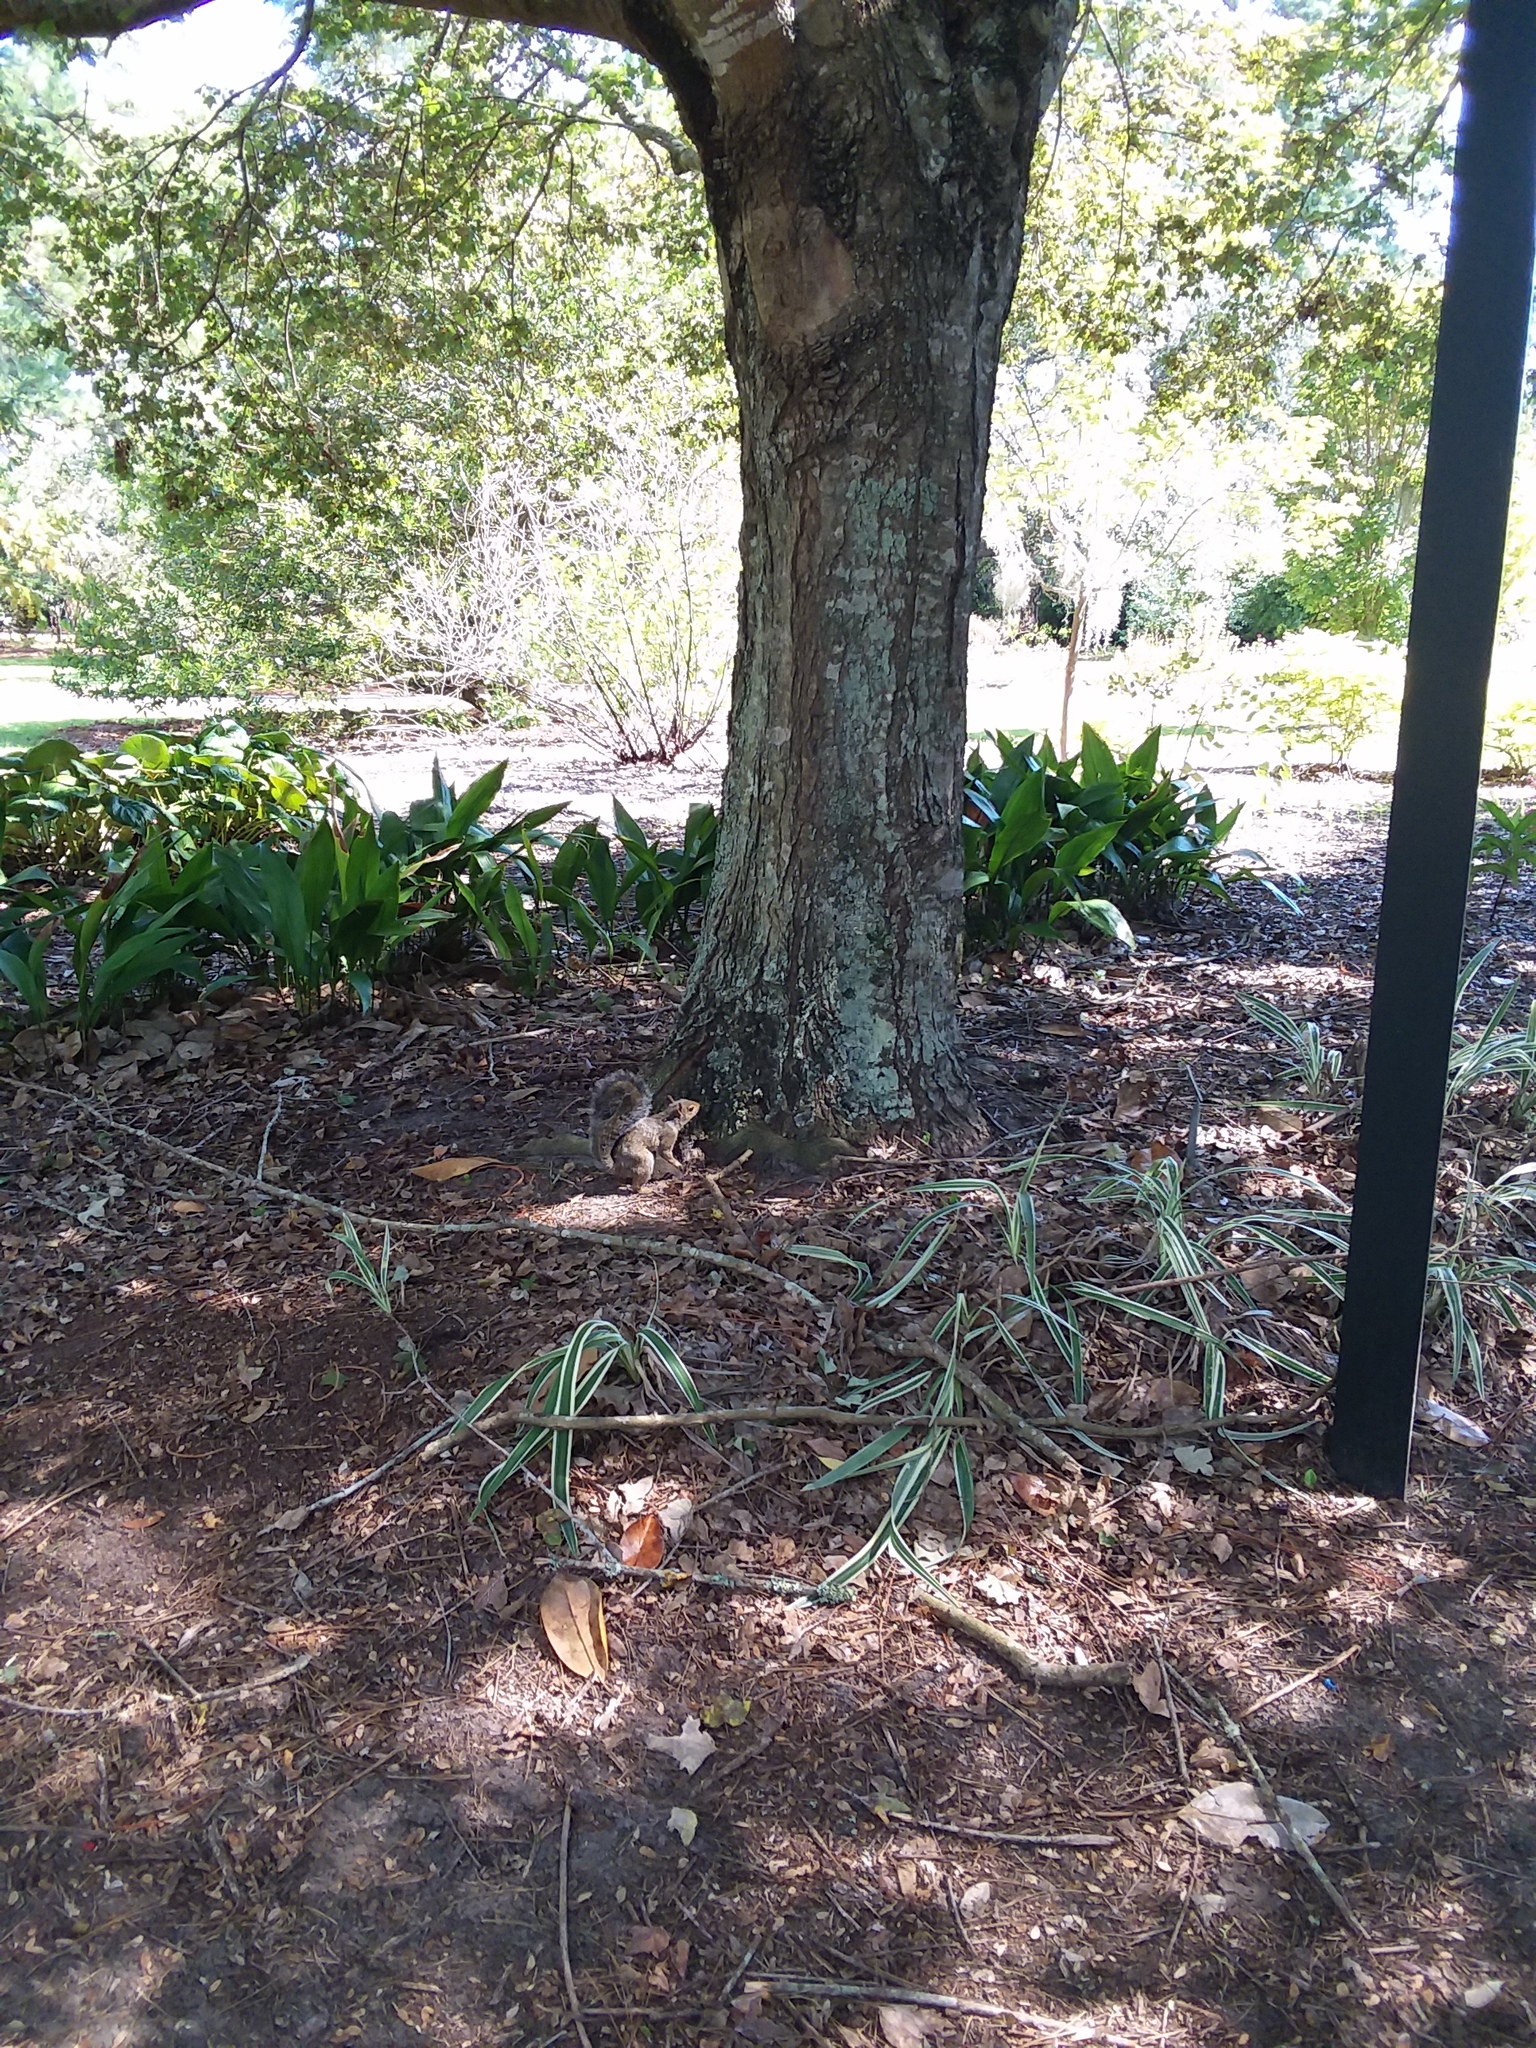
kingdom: Animalia
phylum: Chordata
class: Mammalia
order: Rodentia
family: Sciuridae
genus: Sciurus
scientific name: Sciurus carolinensis
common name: Eastern gray squirrel
